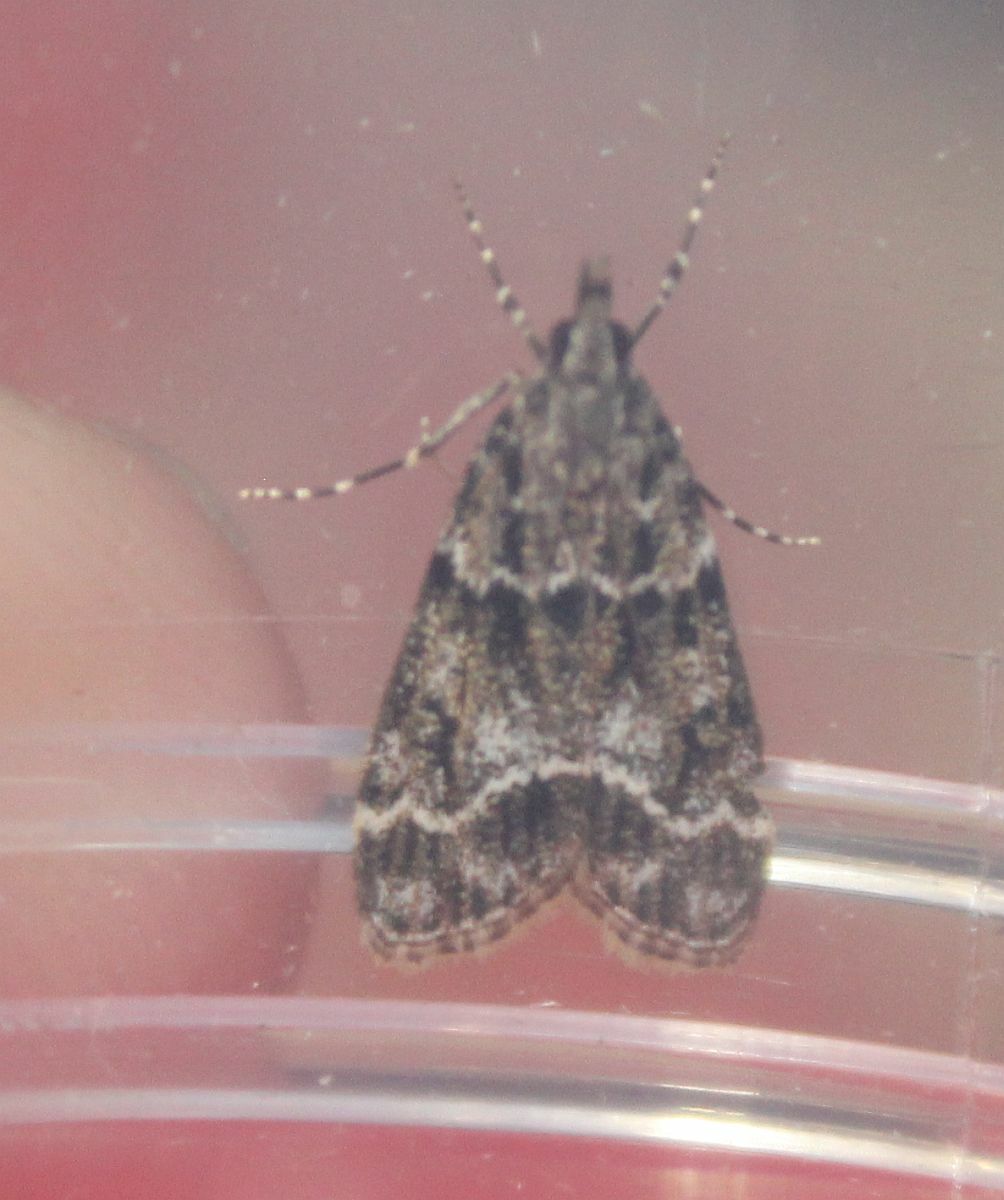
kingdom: Animalia
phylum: Arthropoda
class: Insecta
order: Lepidoptera
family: Crambidae
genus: Eudonia
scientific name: Eudonia mercurella
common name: Small grey
